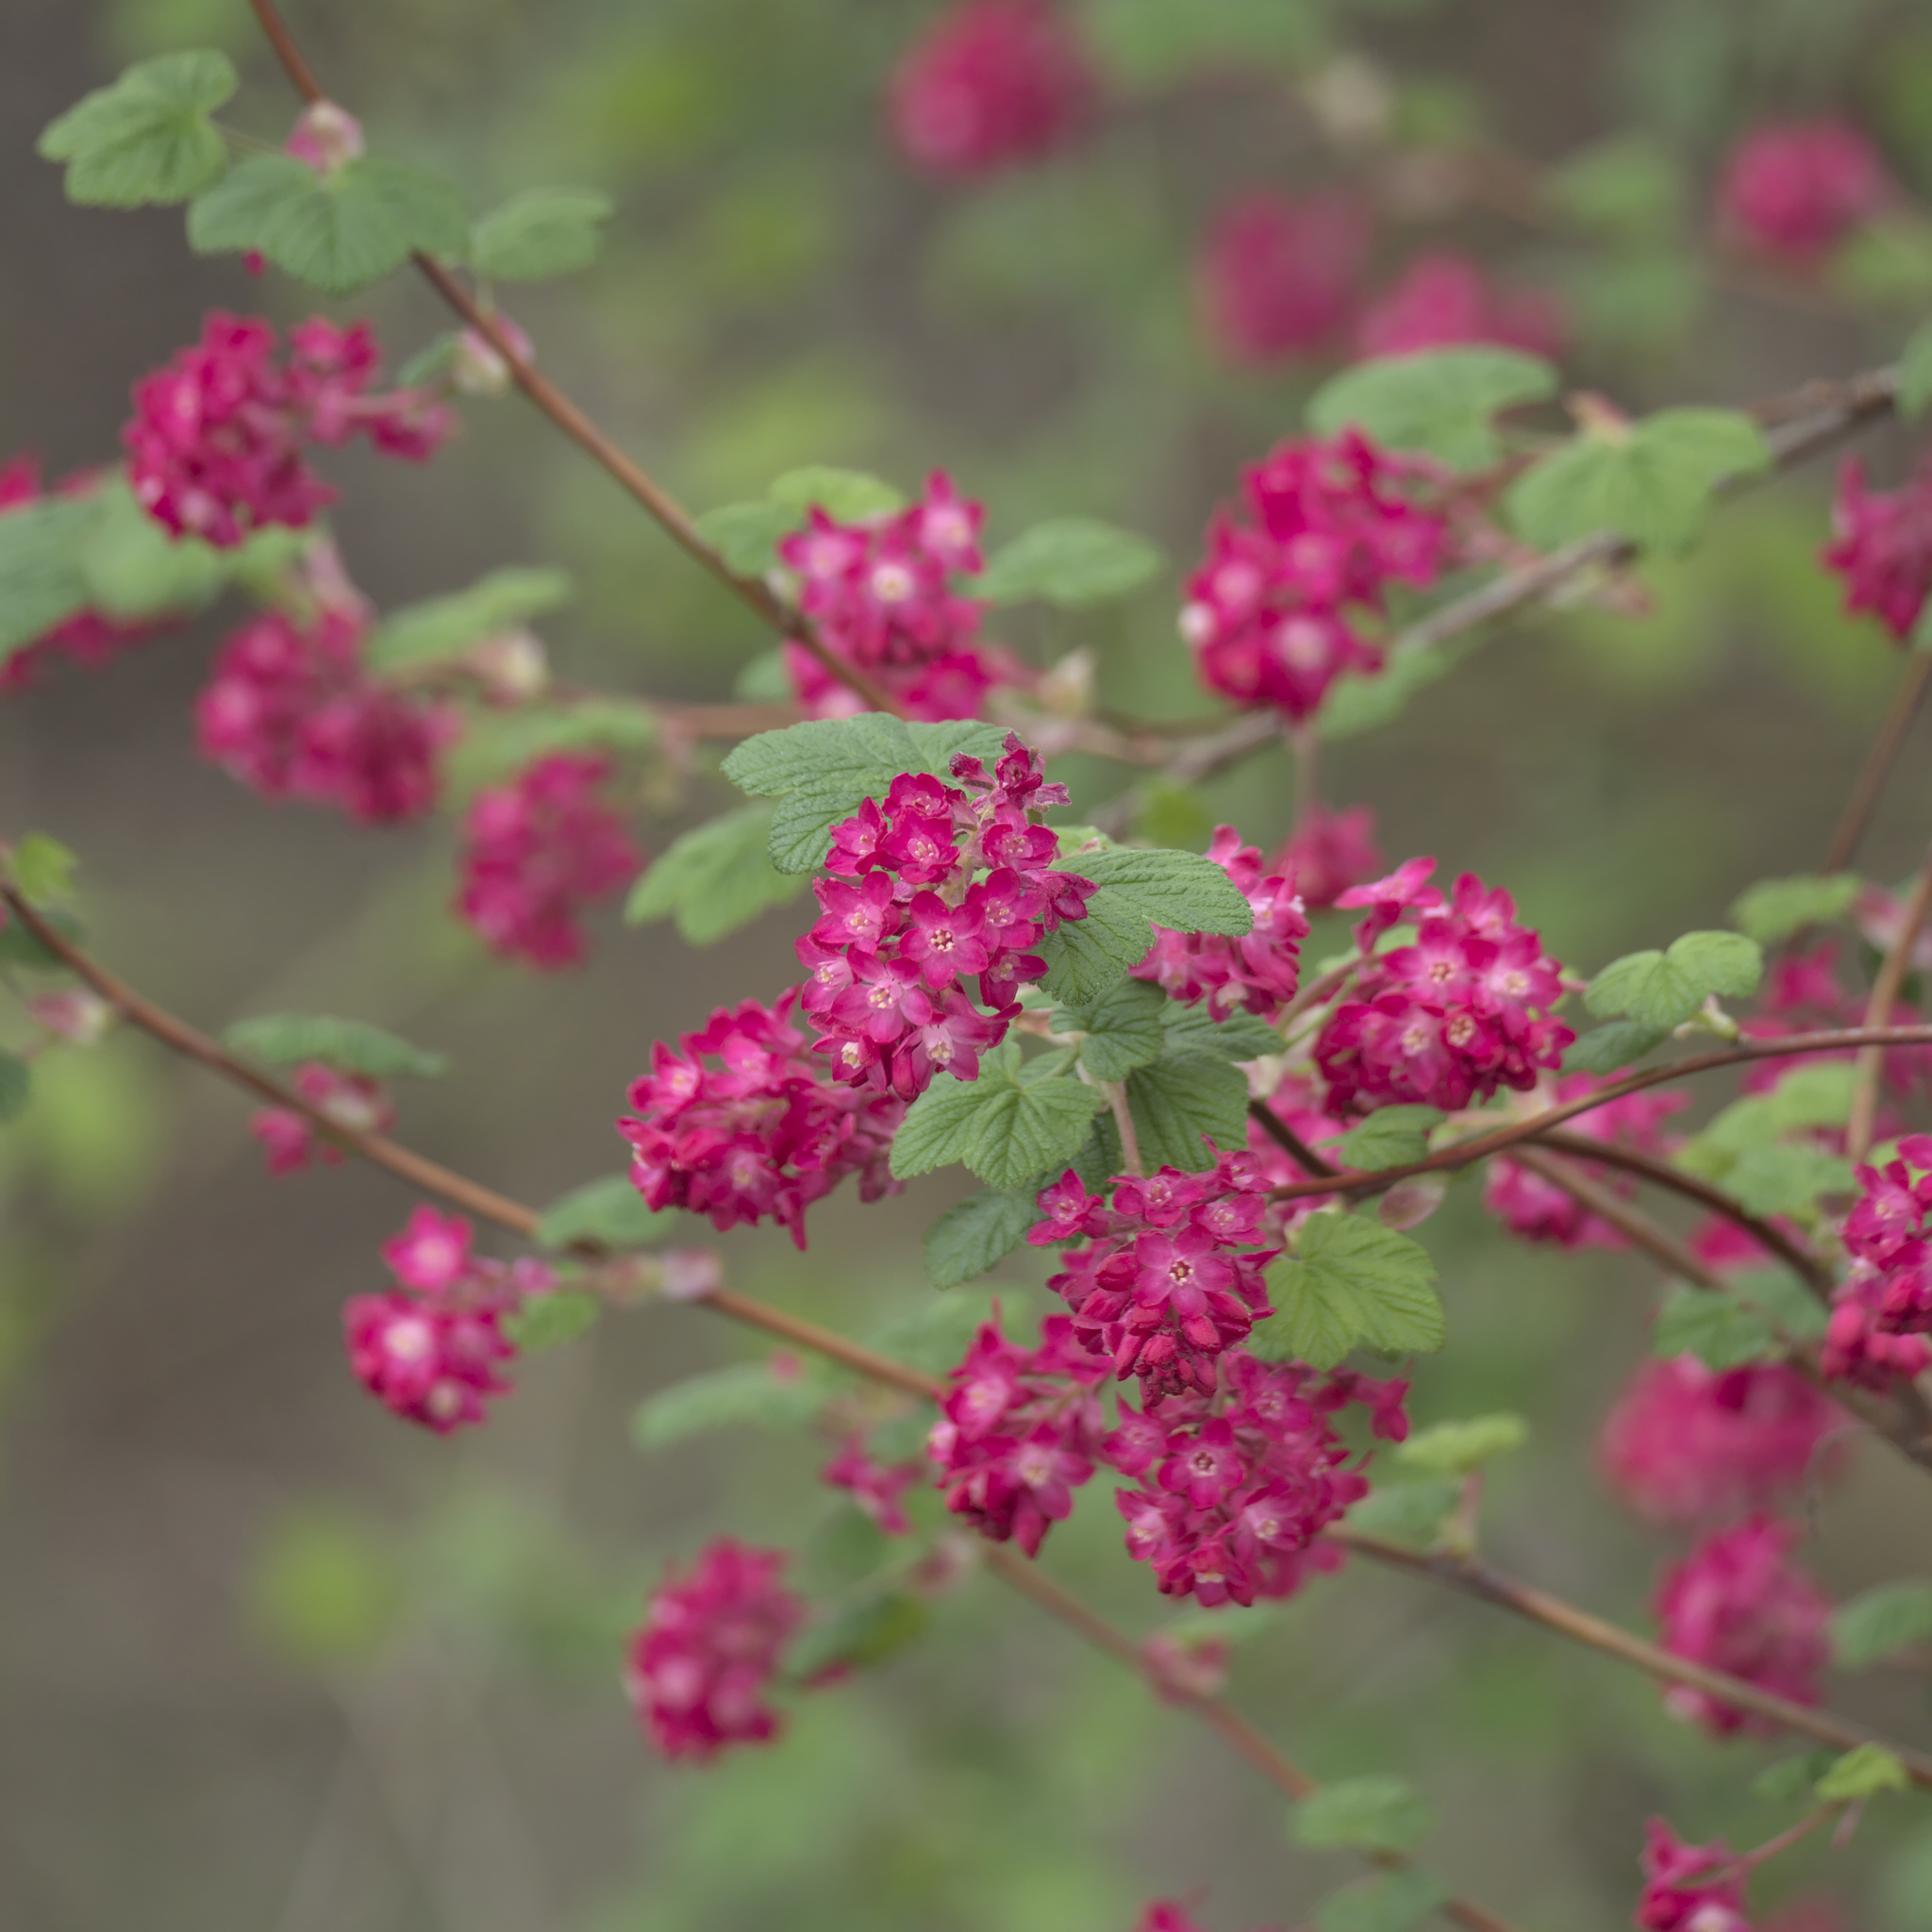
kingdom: Plantae
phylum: Tracheophyta
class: Magnoliopsida
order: Saxifragales
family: Grossulariaceae
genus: Ribes
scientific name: Ribes sanguineum
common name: Flowering currant
